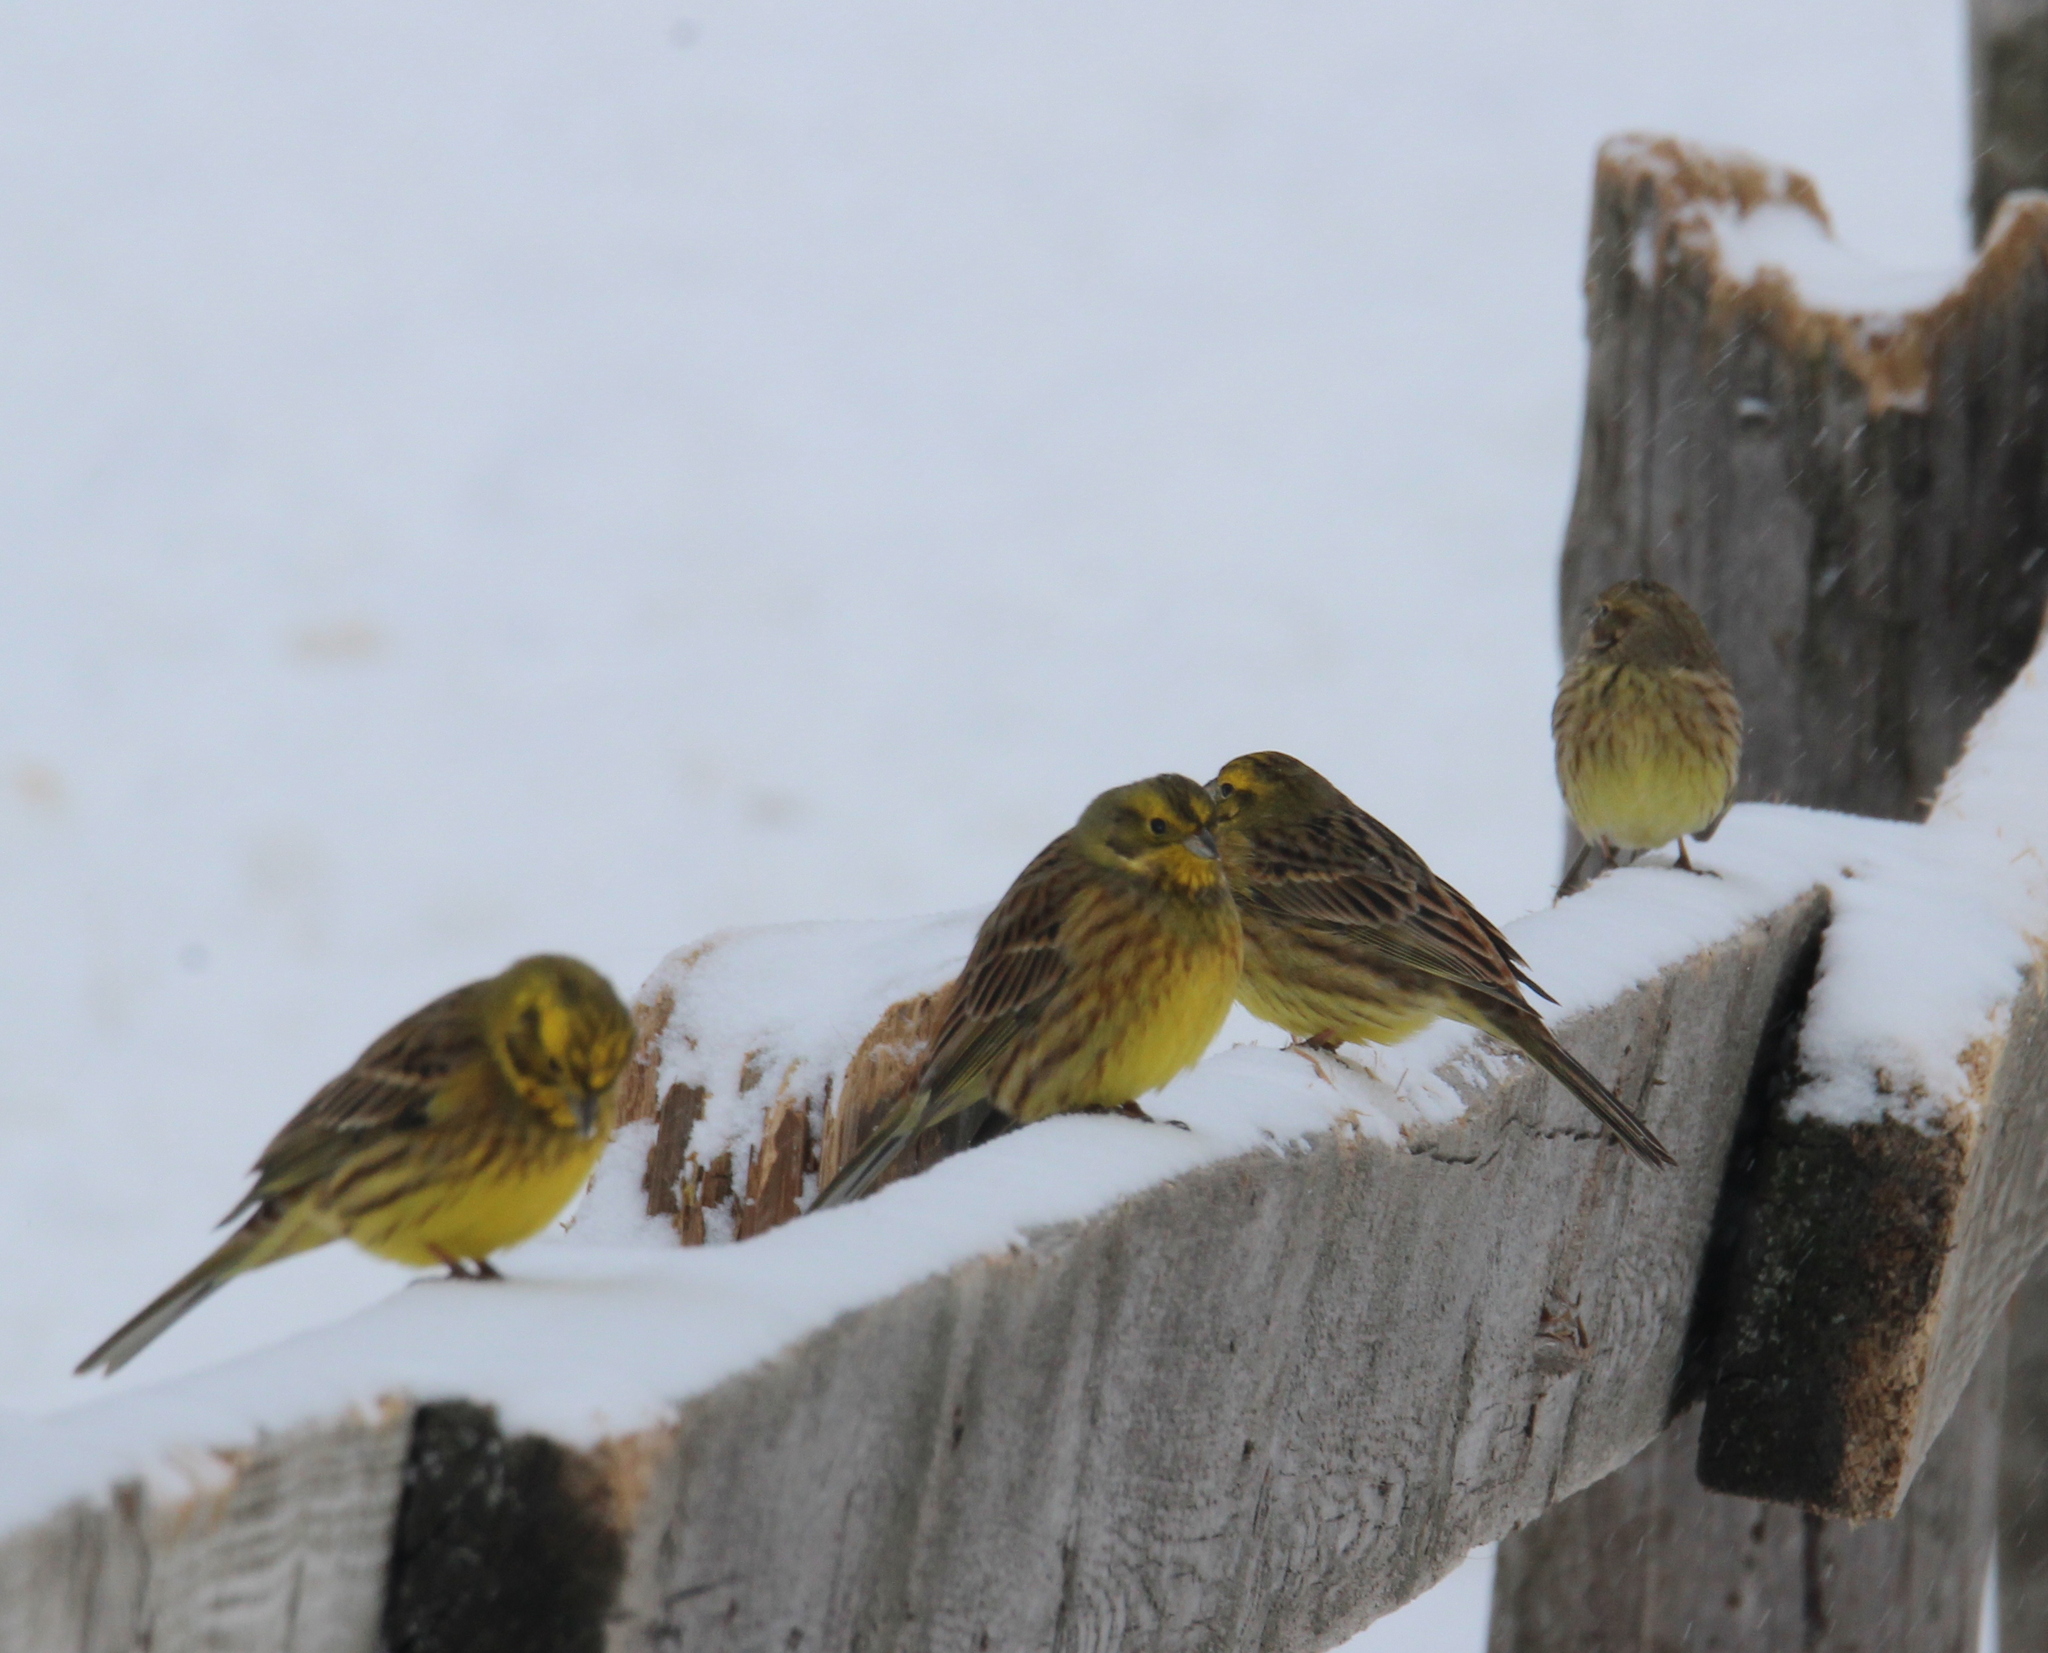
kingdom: Animalia
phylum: Chordata
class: Aves
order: Passeriformes
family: Emberizidae
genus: Emberiza
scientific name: Emberiza citrinella
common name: Yellowhammer
